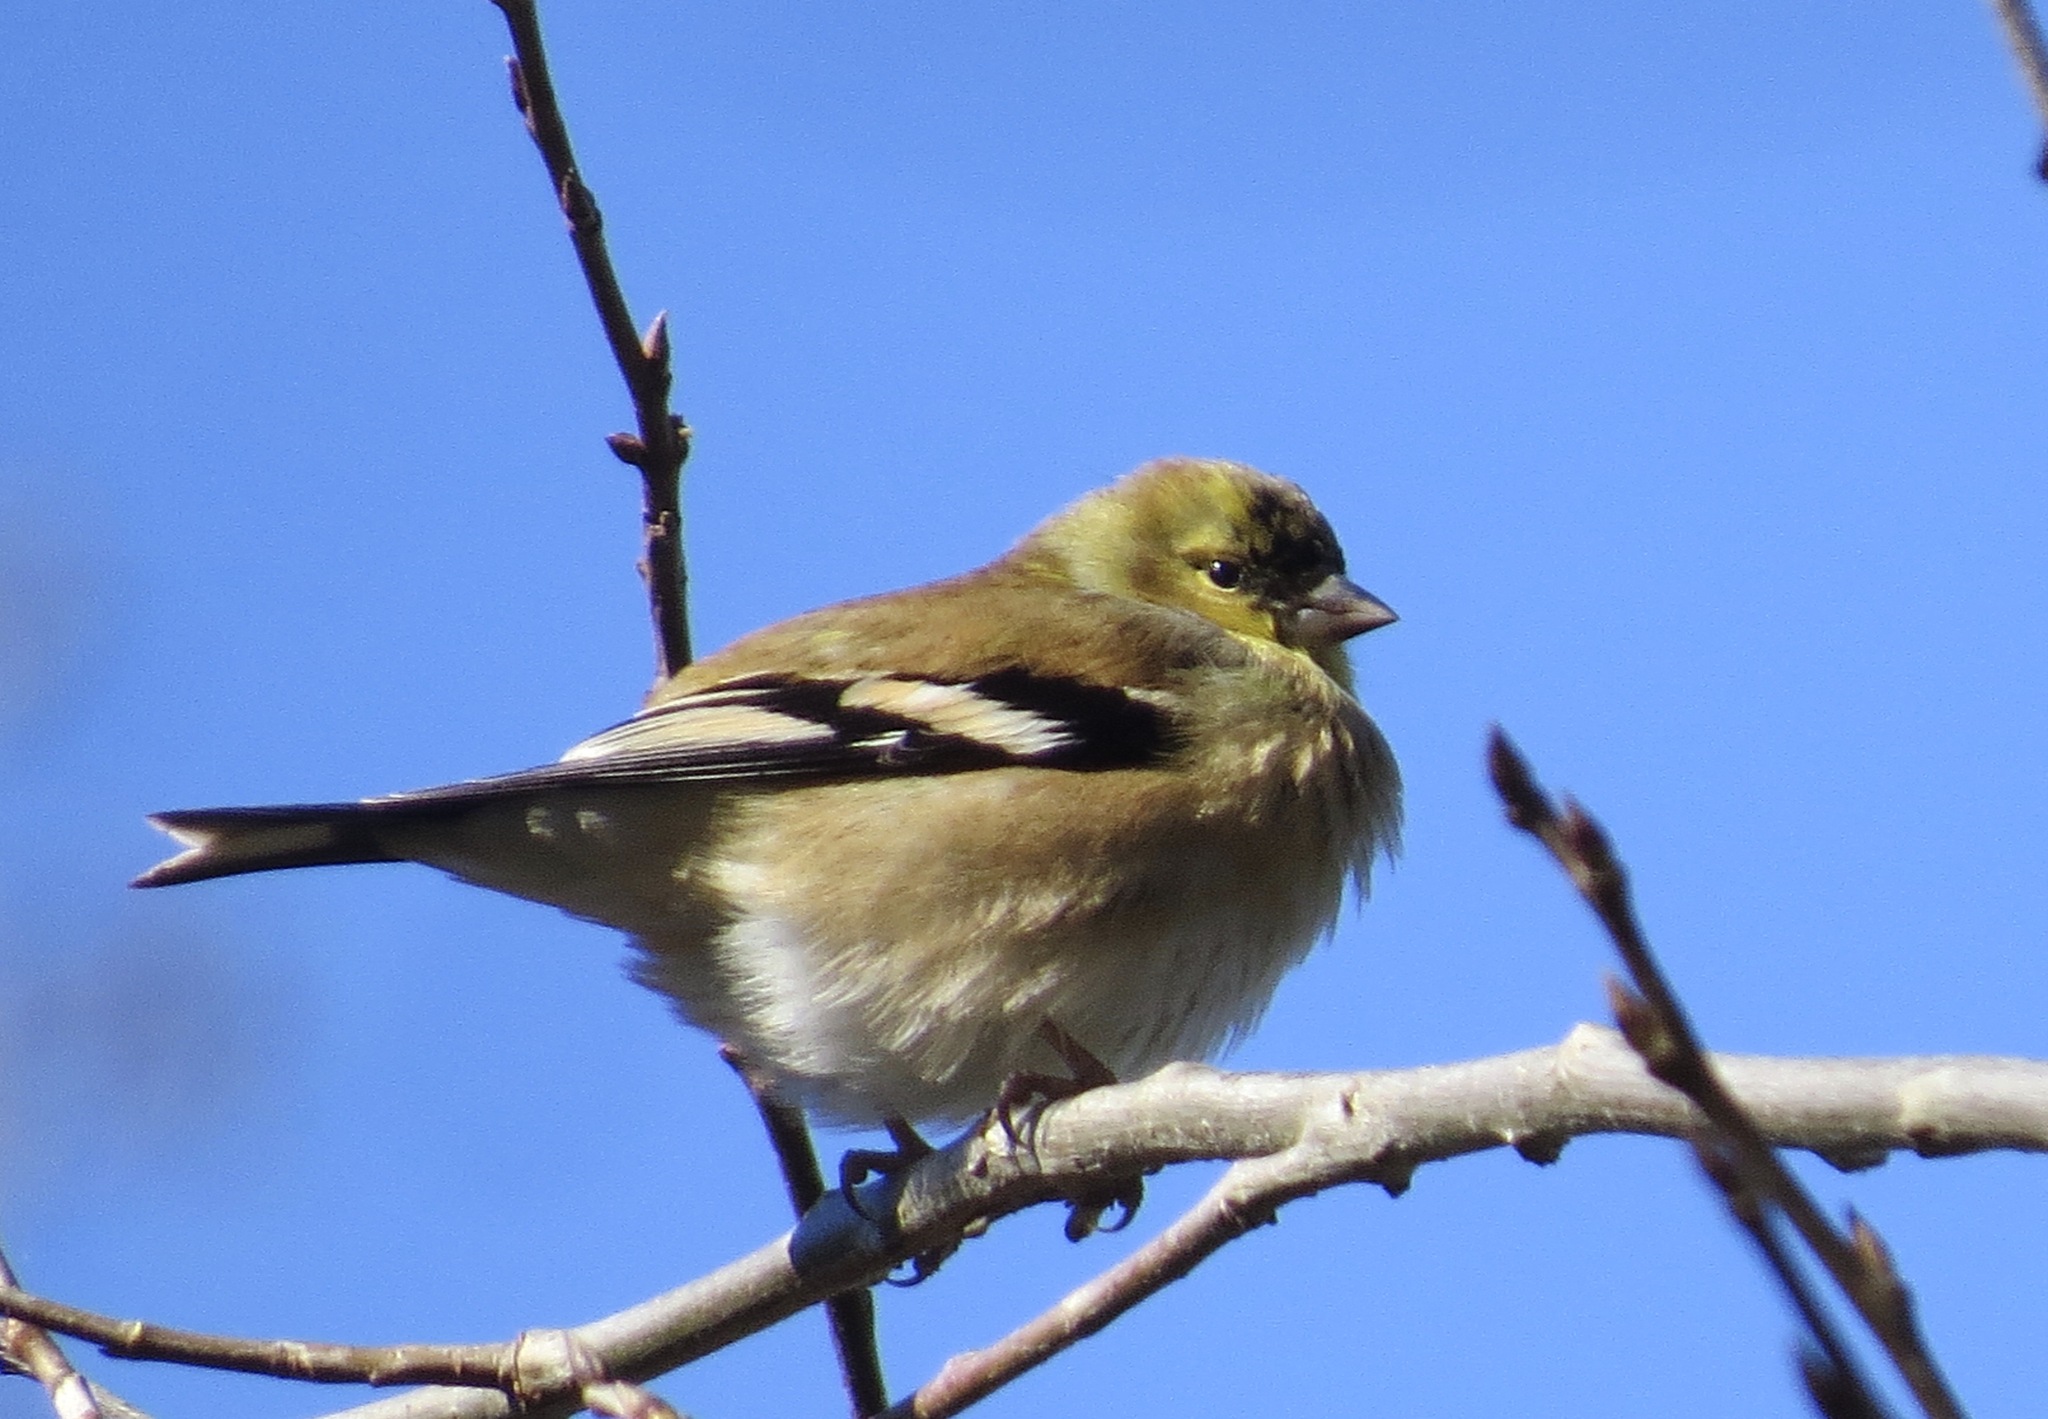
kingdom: Animalia
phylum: Chordata
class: Aves
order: Passeriformes
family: Fringillidae
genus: Spinus
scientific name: Spinus tristis
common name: American goldfinch
